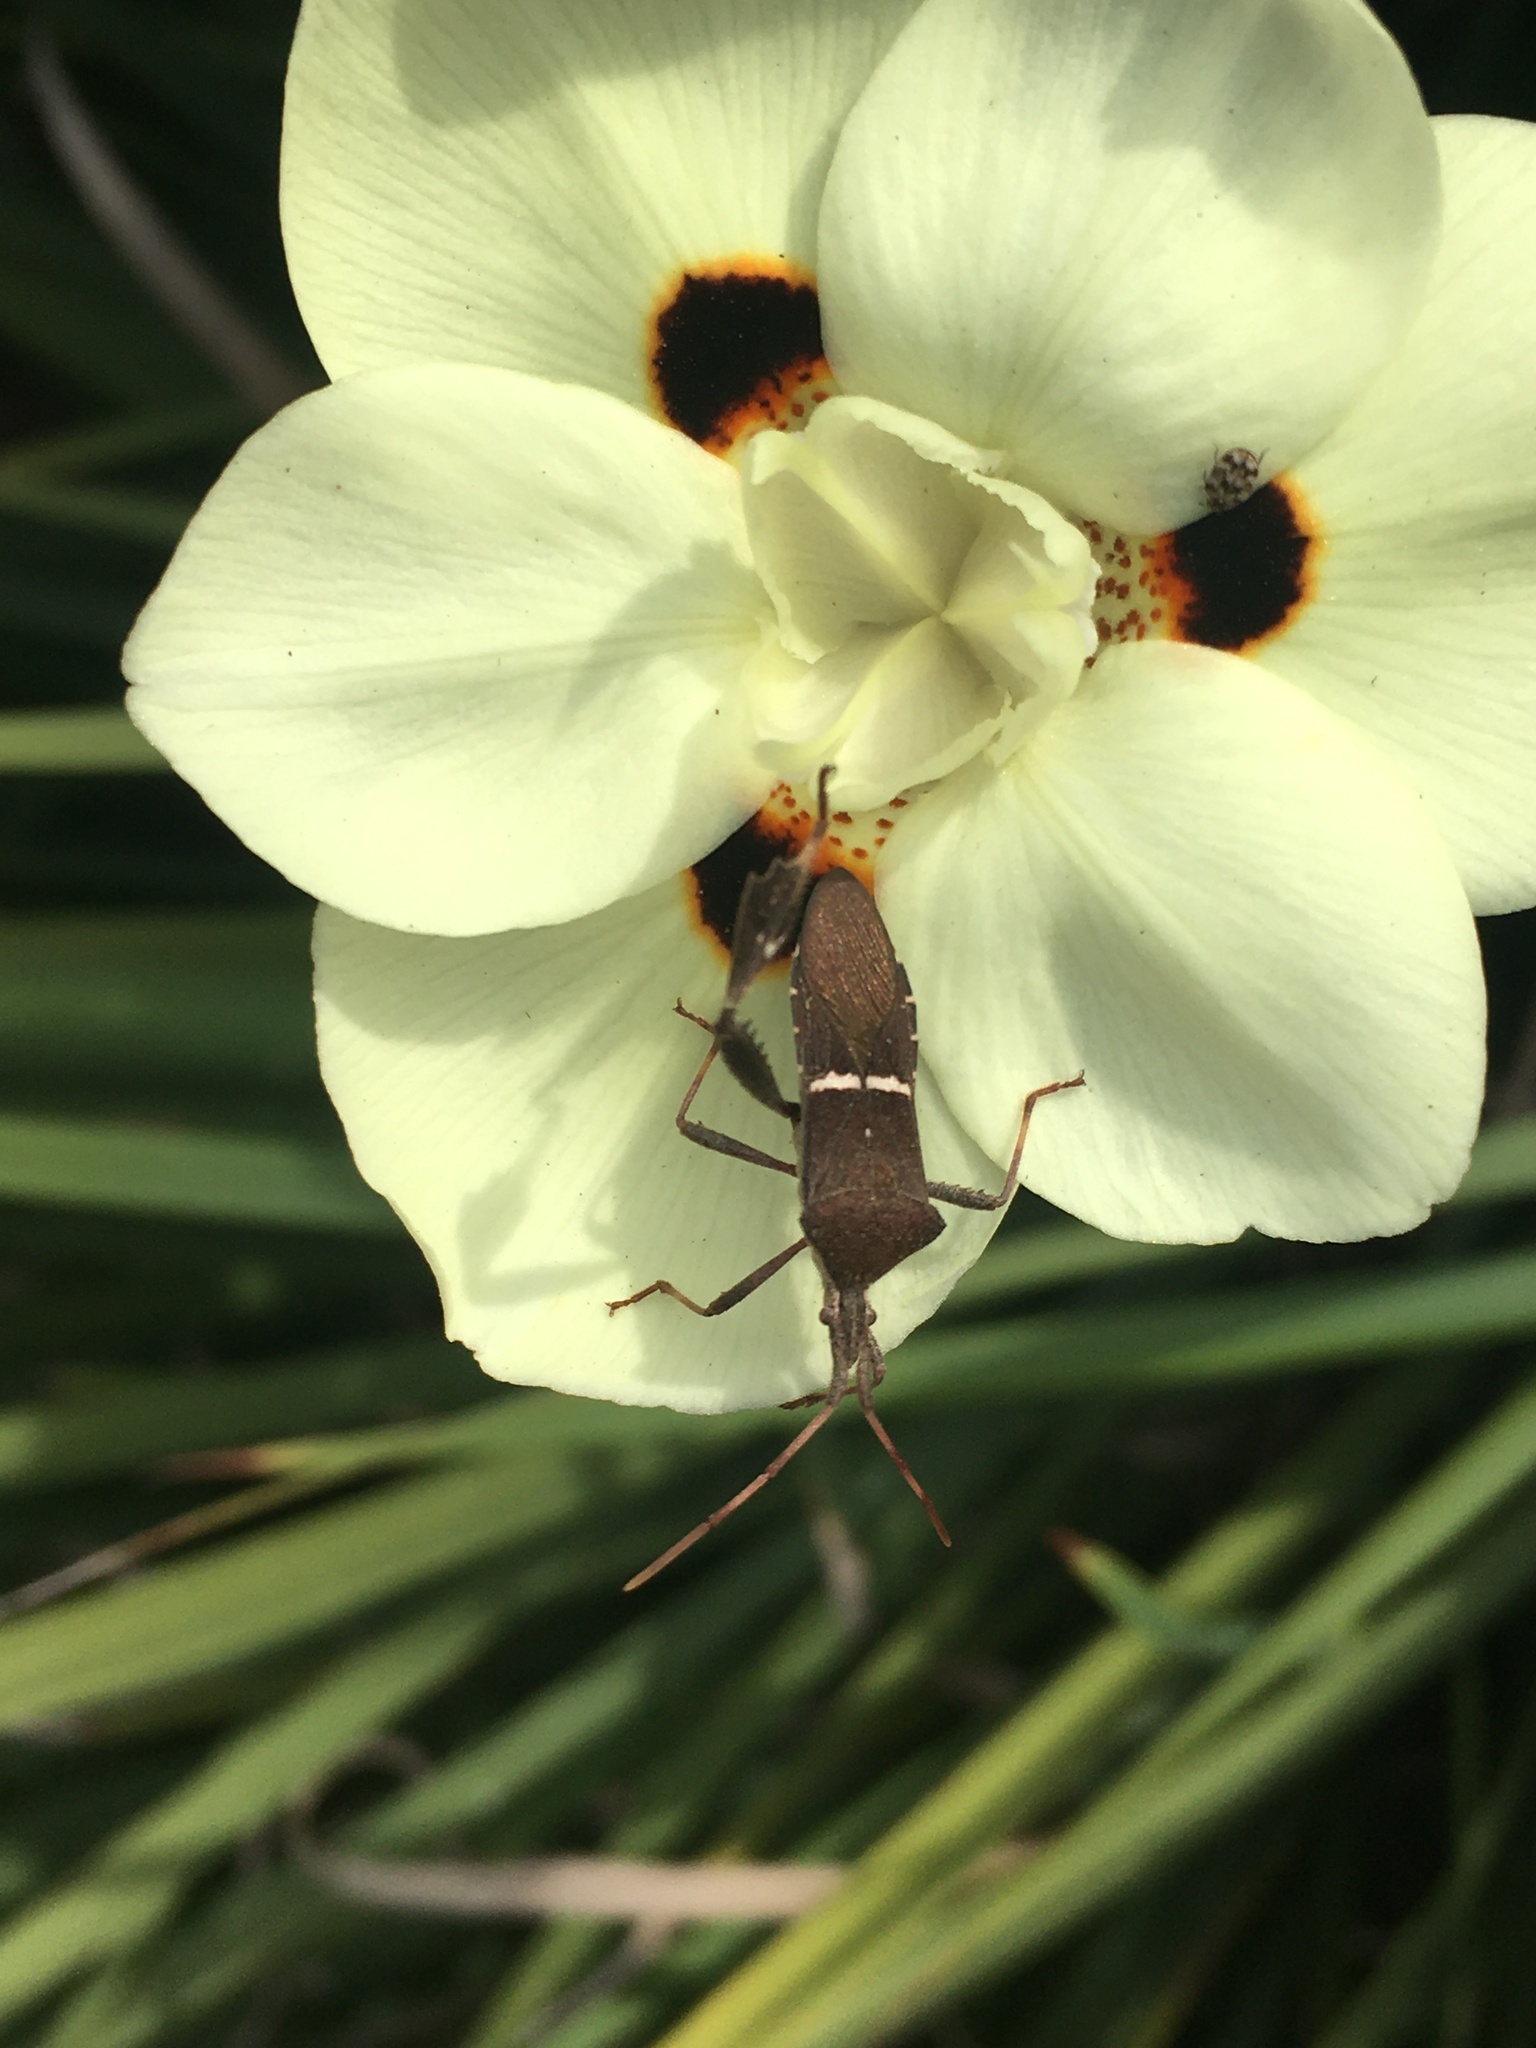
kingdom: Animalia
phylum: Arthropoda
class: Insecta
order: Hemiptera
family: Coreidae
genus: Leptoglossus
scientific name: Leptoglossus phyllopus
